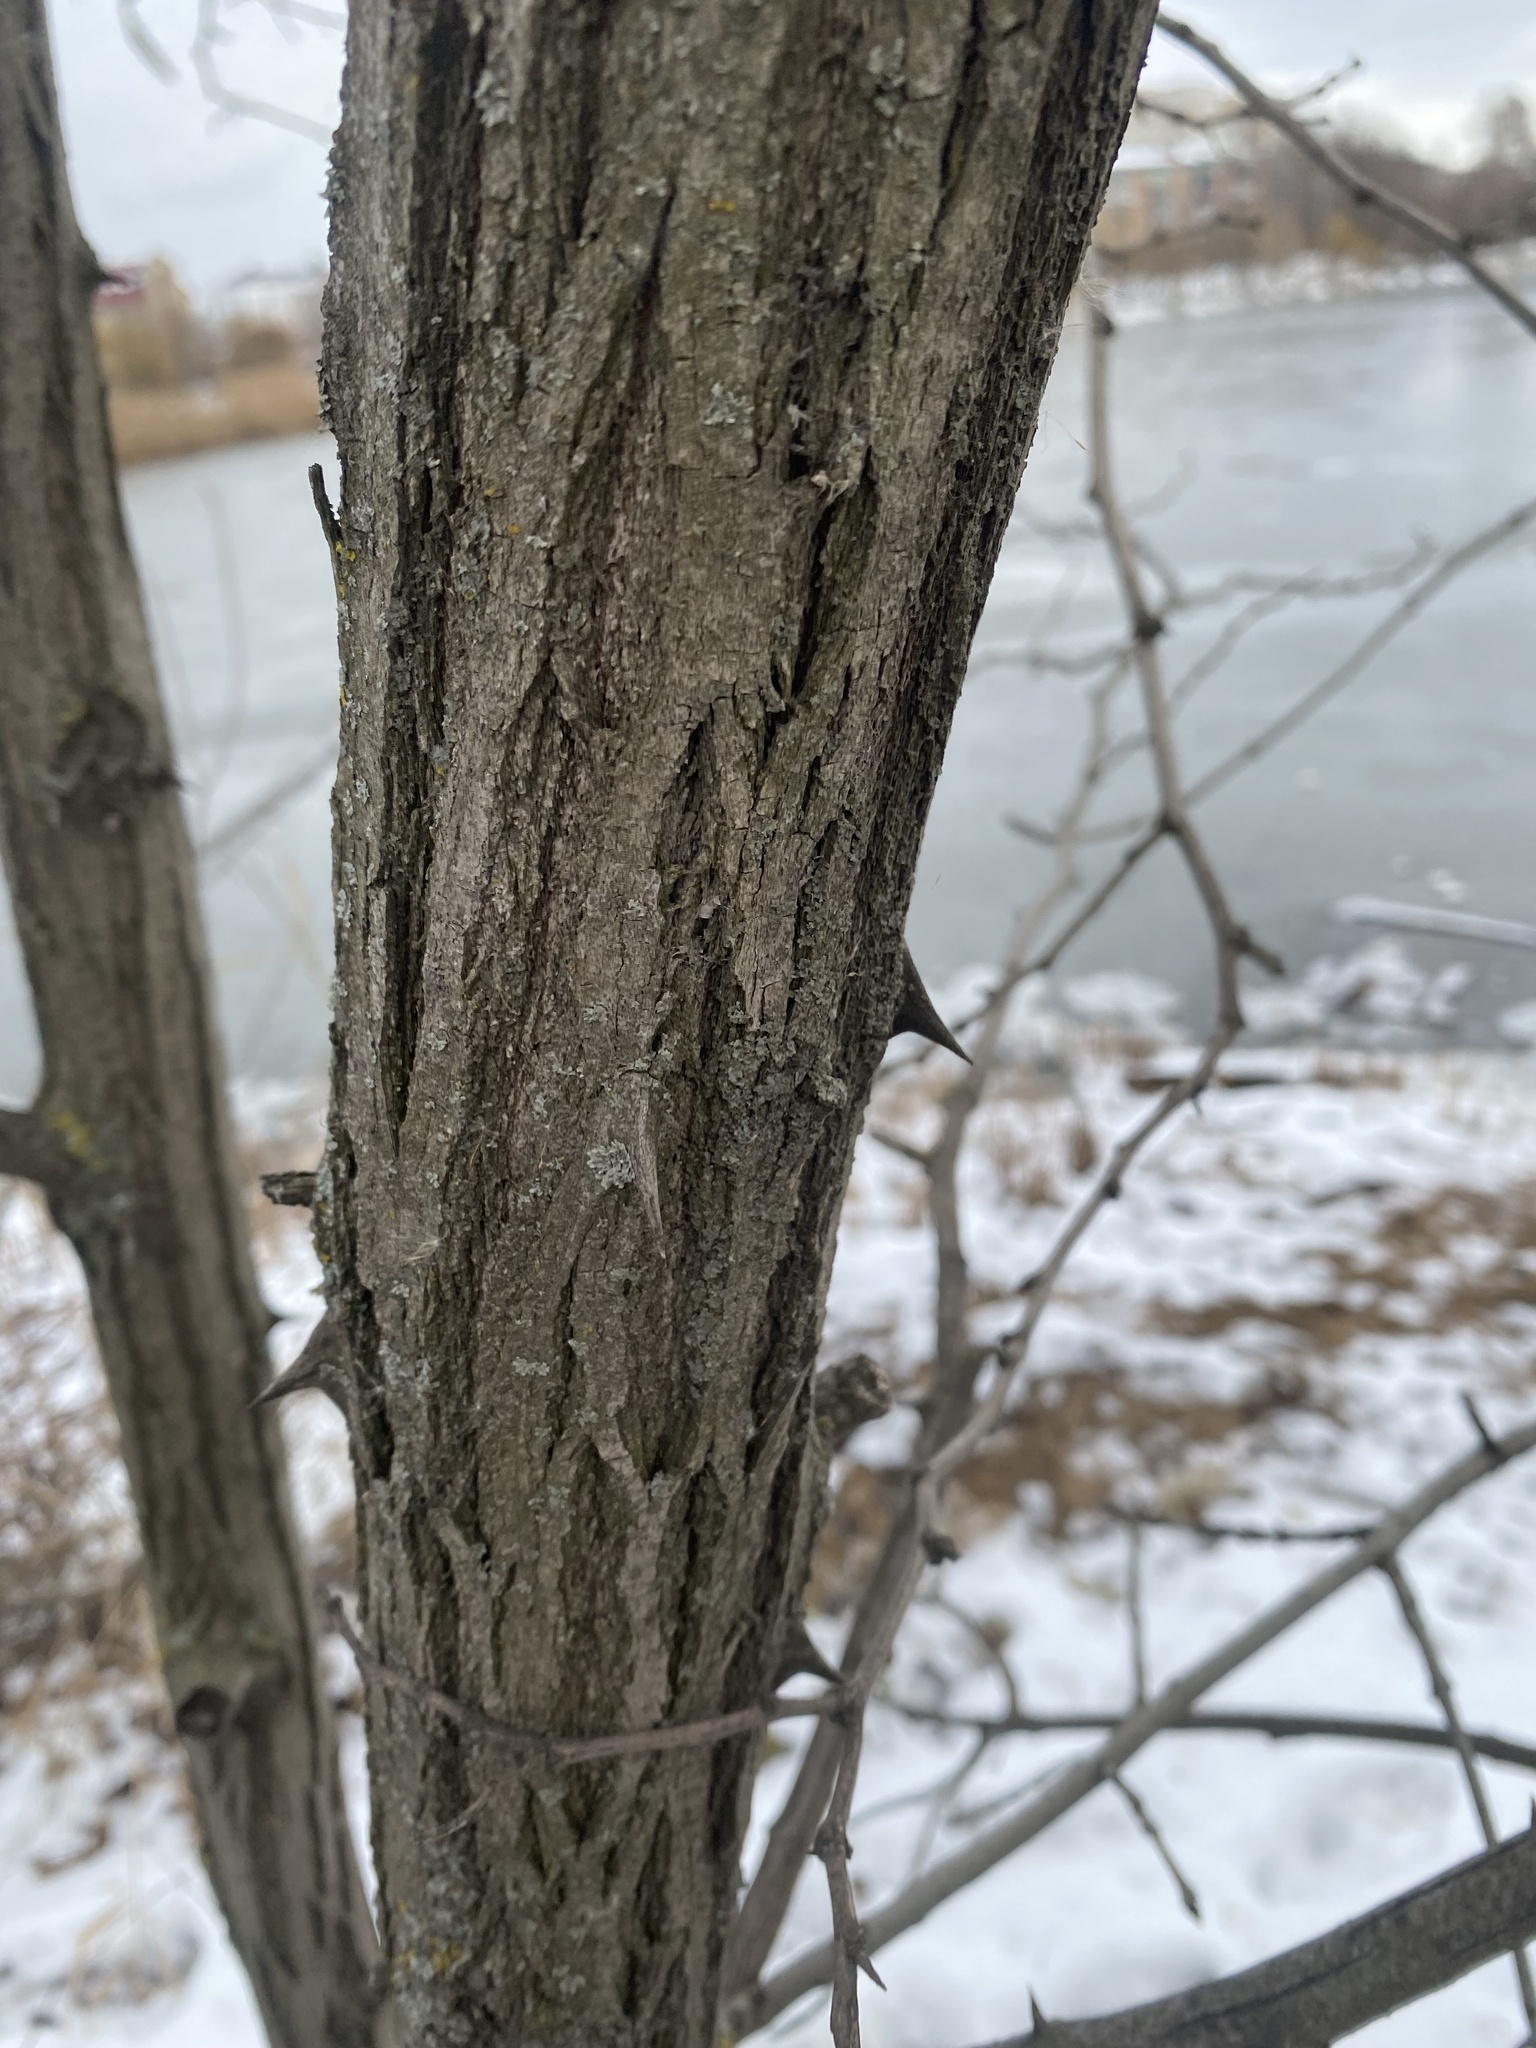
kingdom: Plantae
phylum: Tracheophyta
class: Magnoliopsida
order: Fabales
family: Fabaceae
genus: Robinia
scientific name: Robinia pseudoacacia
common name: Black locust
